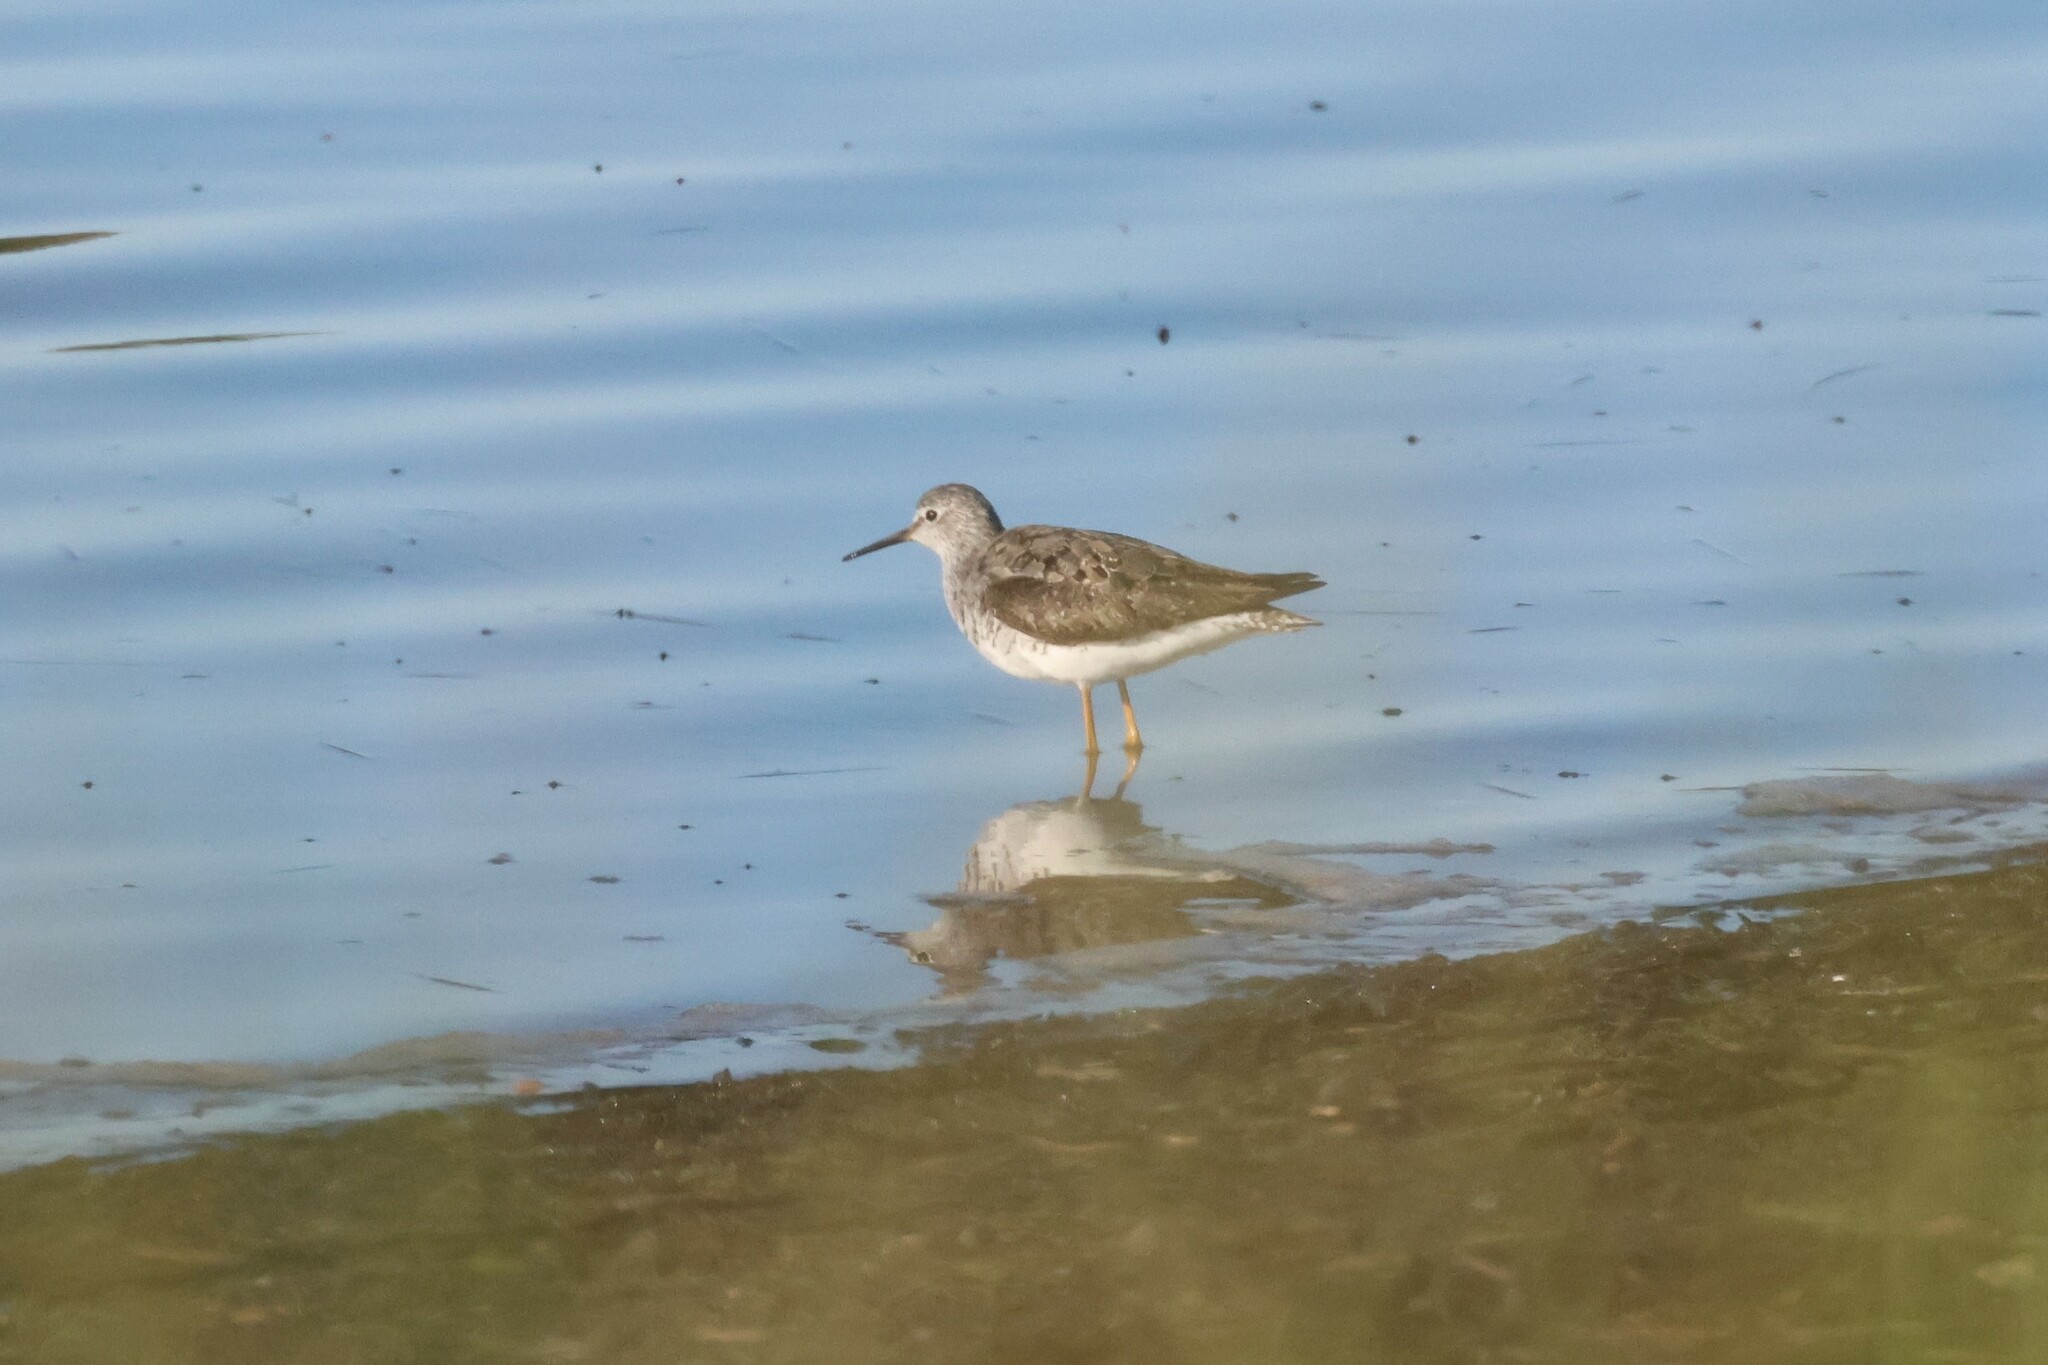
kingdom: Animalia
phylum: Chordata
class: Aves
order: Charadriiformes
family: Scolopacidae
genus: Tringa
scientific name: Tringa flavipes
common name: Lesser yellowlegs
